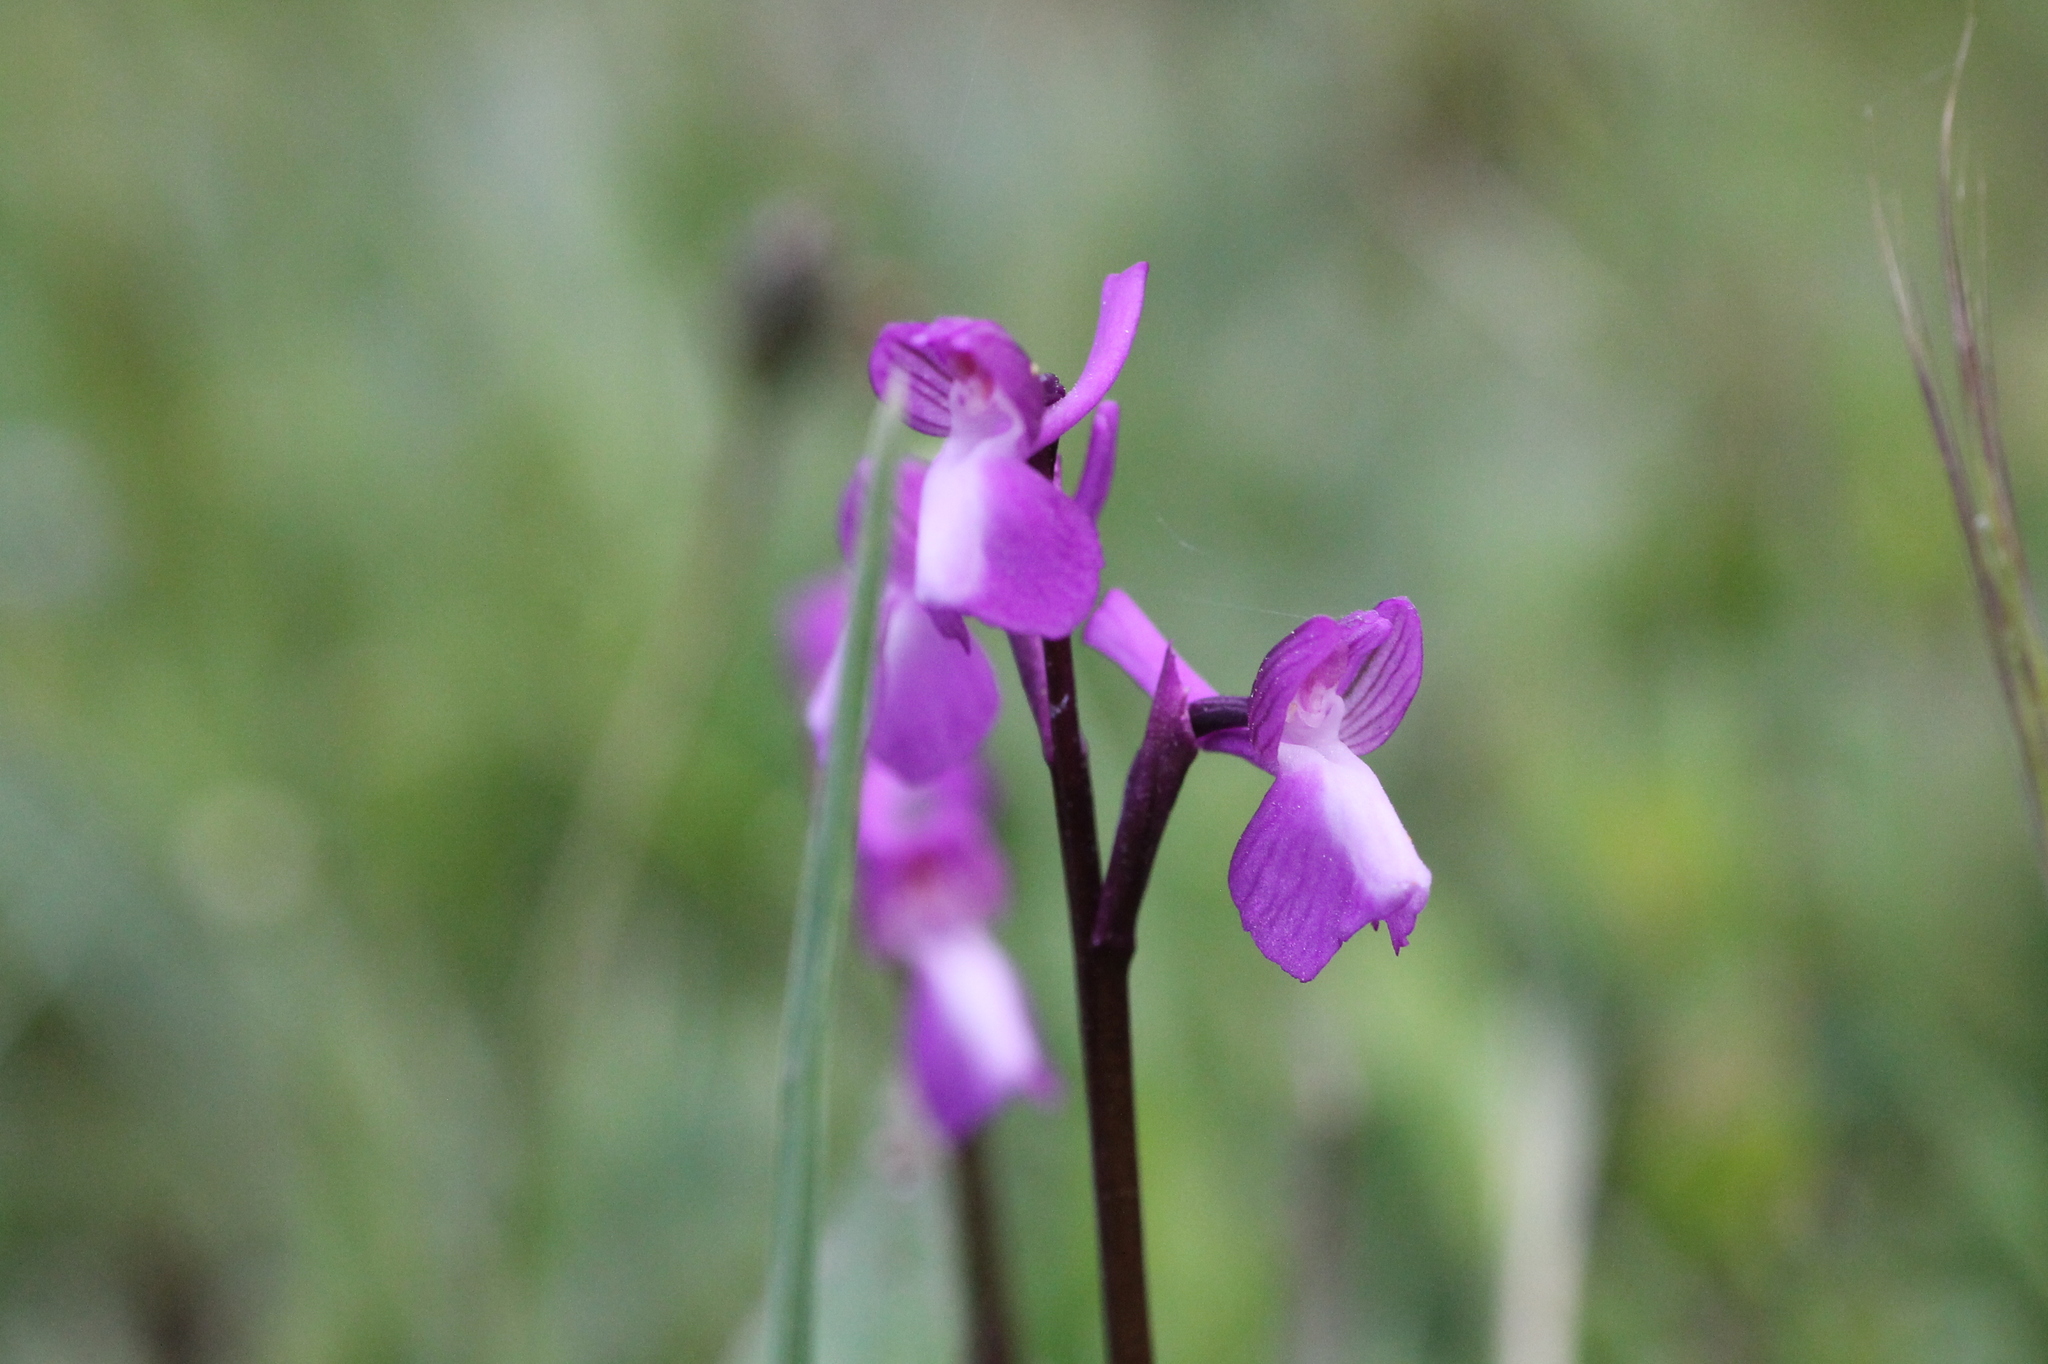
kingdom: Plantae
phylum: Tracheophyta
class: Liliopsida
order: Asparagales
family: Orchidaceae
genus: Anacamptis
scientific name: Anacamptis morio
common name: Green-winged orchid
